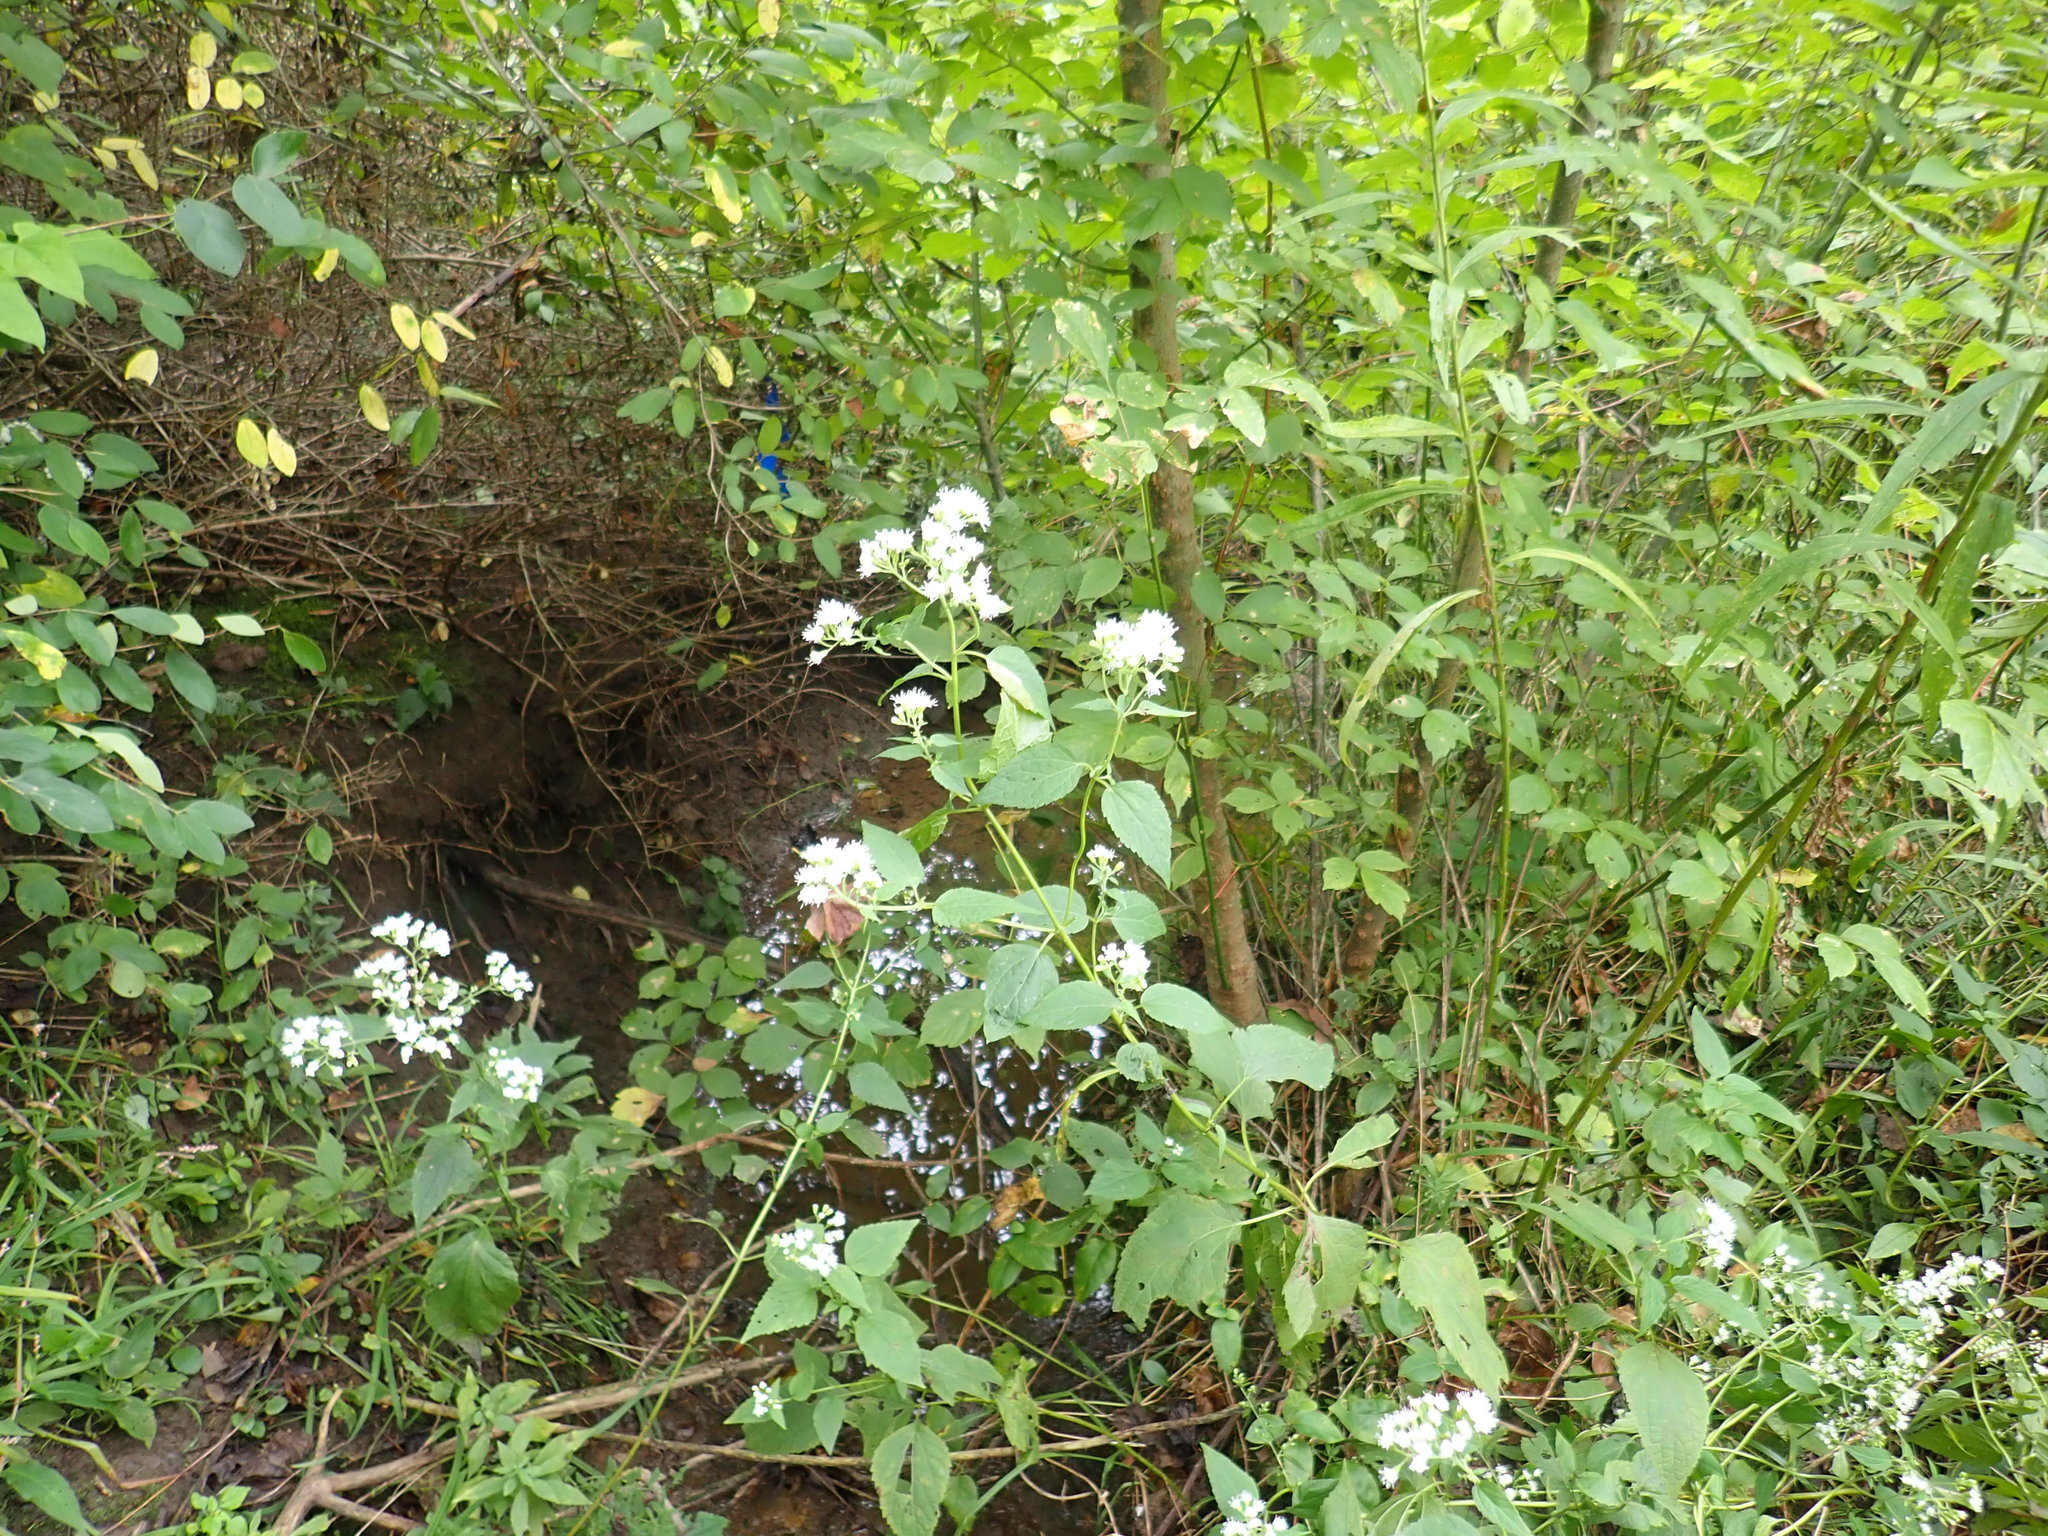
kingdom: Plantae
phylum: Tracheophyta
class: Magnoliopsida
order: Asterales
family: Asteraceae
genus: Ageratina
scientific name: Ageratina altissima
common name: White snakeroot
